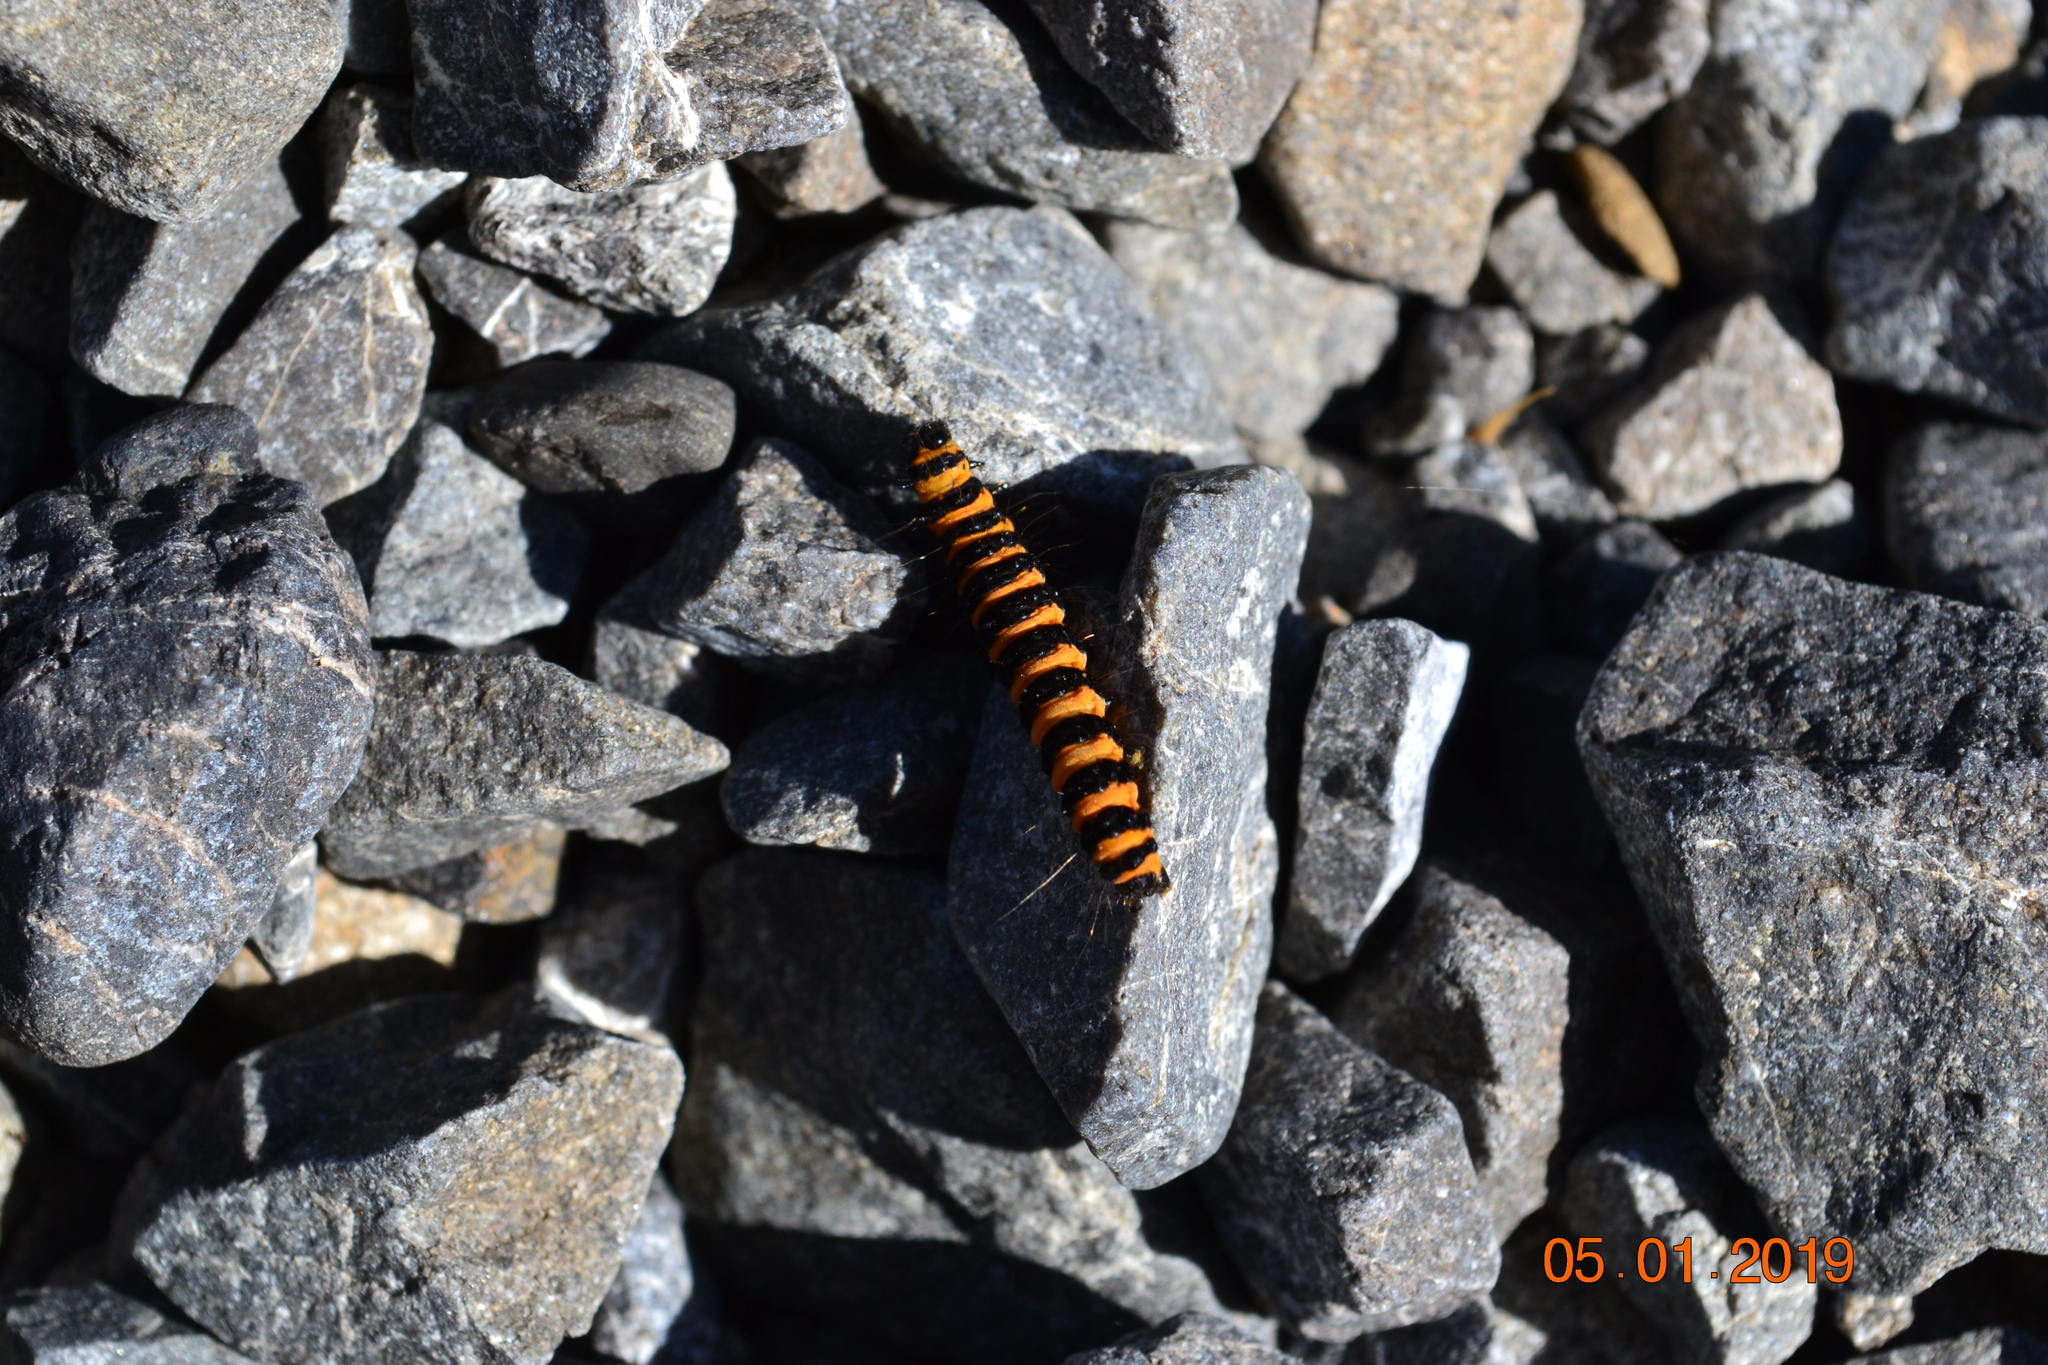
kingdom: Animalia
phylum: Arthropoda
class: Insecta
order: Lepidoptera
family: Erebidae
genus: Tyria
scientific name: Tyria jacobaeae
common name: Cinnabar
